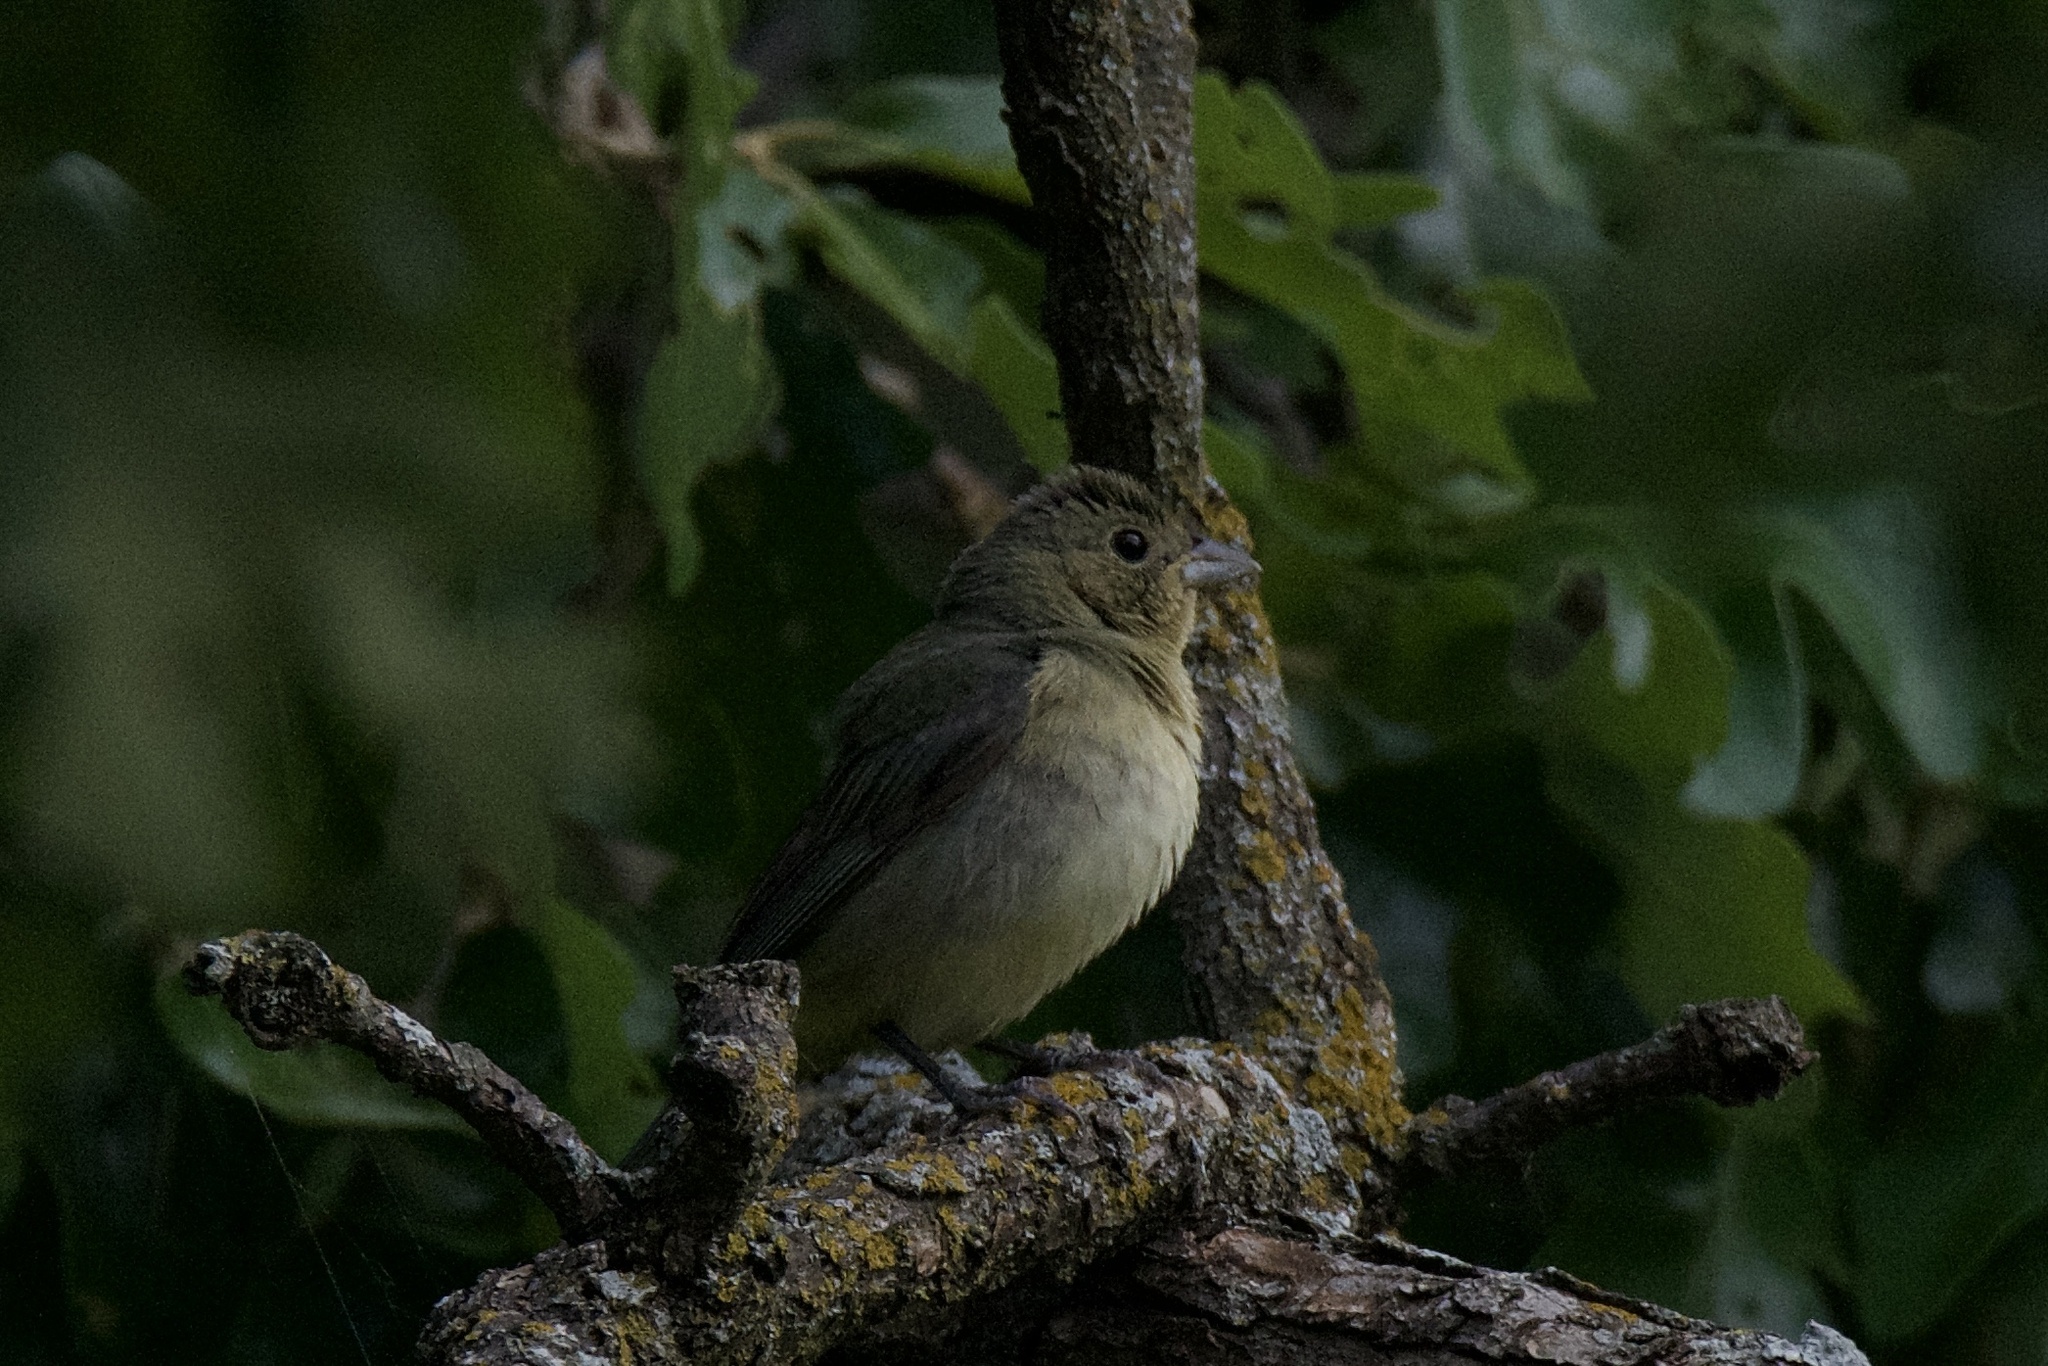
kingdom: Animalia
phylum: Chordata
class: Aves
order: Passeriformes
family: Cardinalidae
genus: Passerina
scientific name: Passerina ciris
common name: Painted bunting
